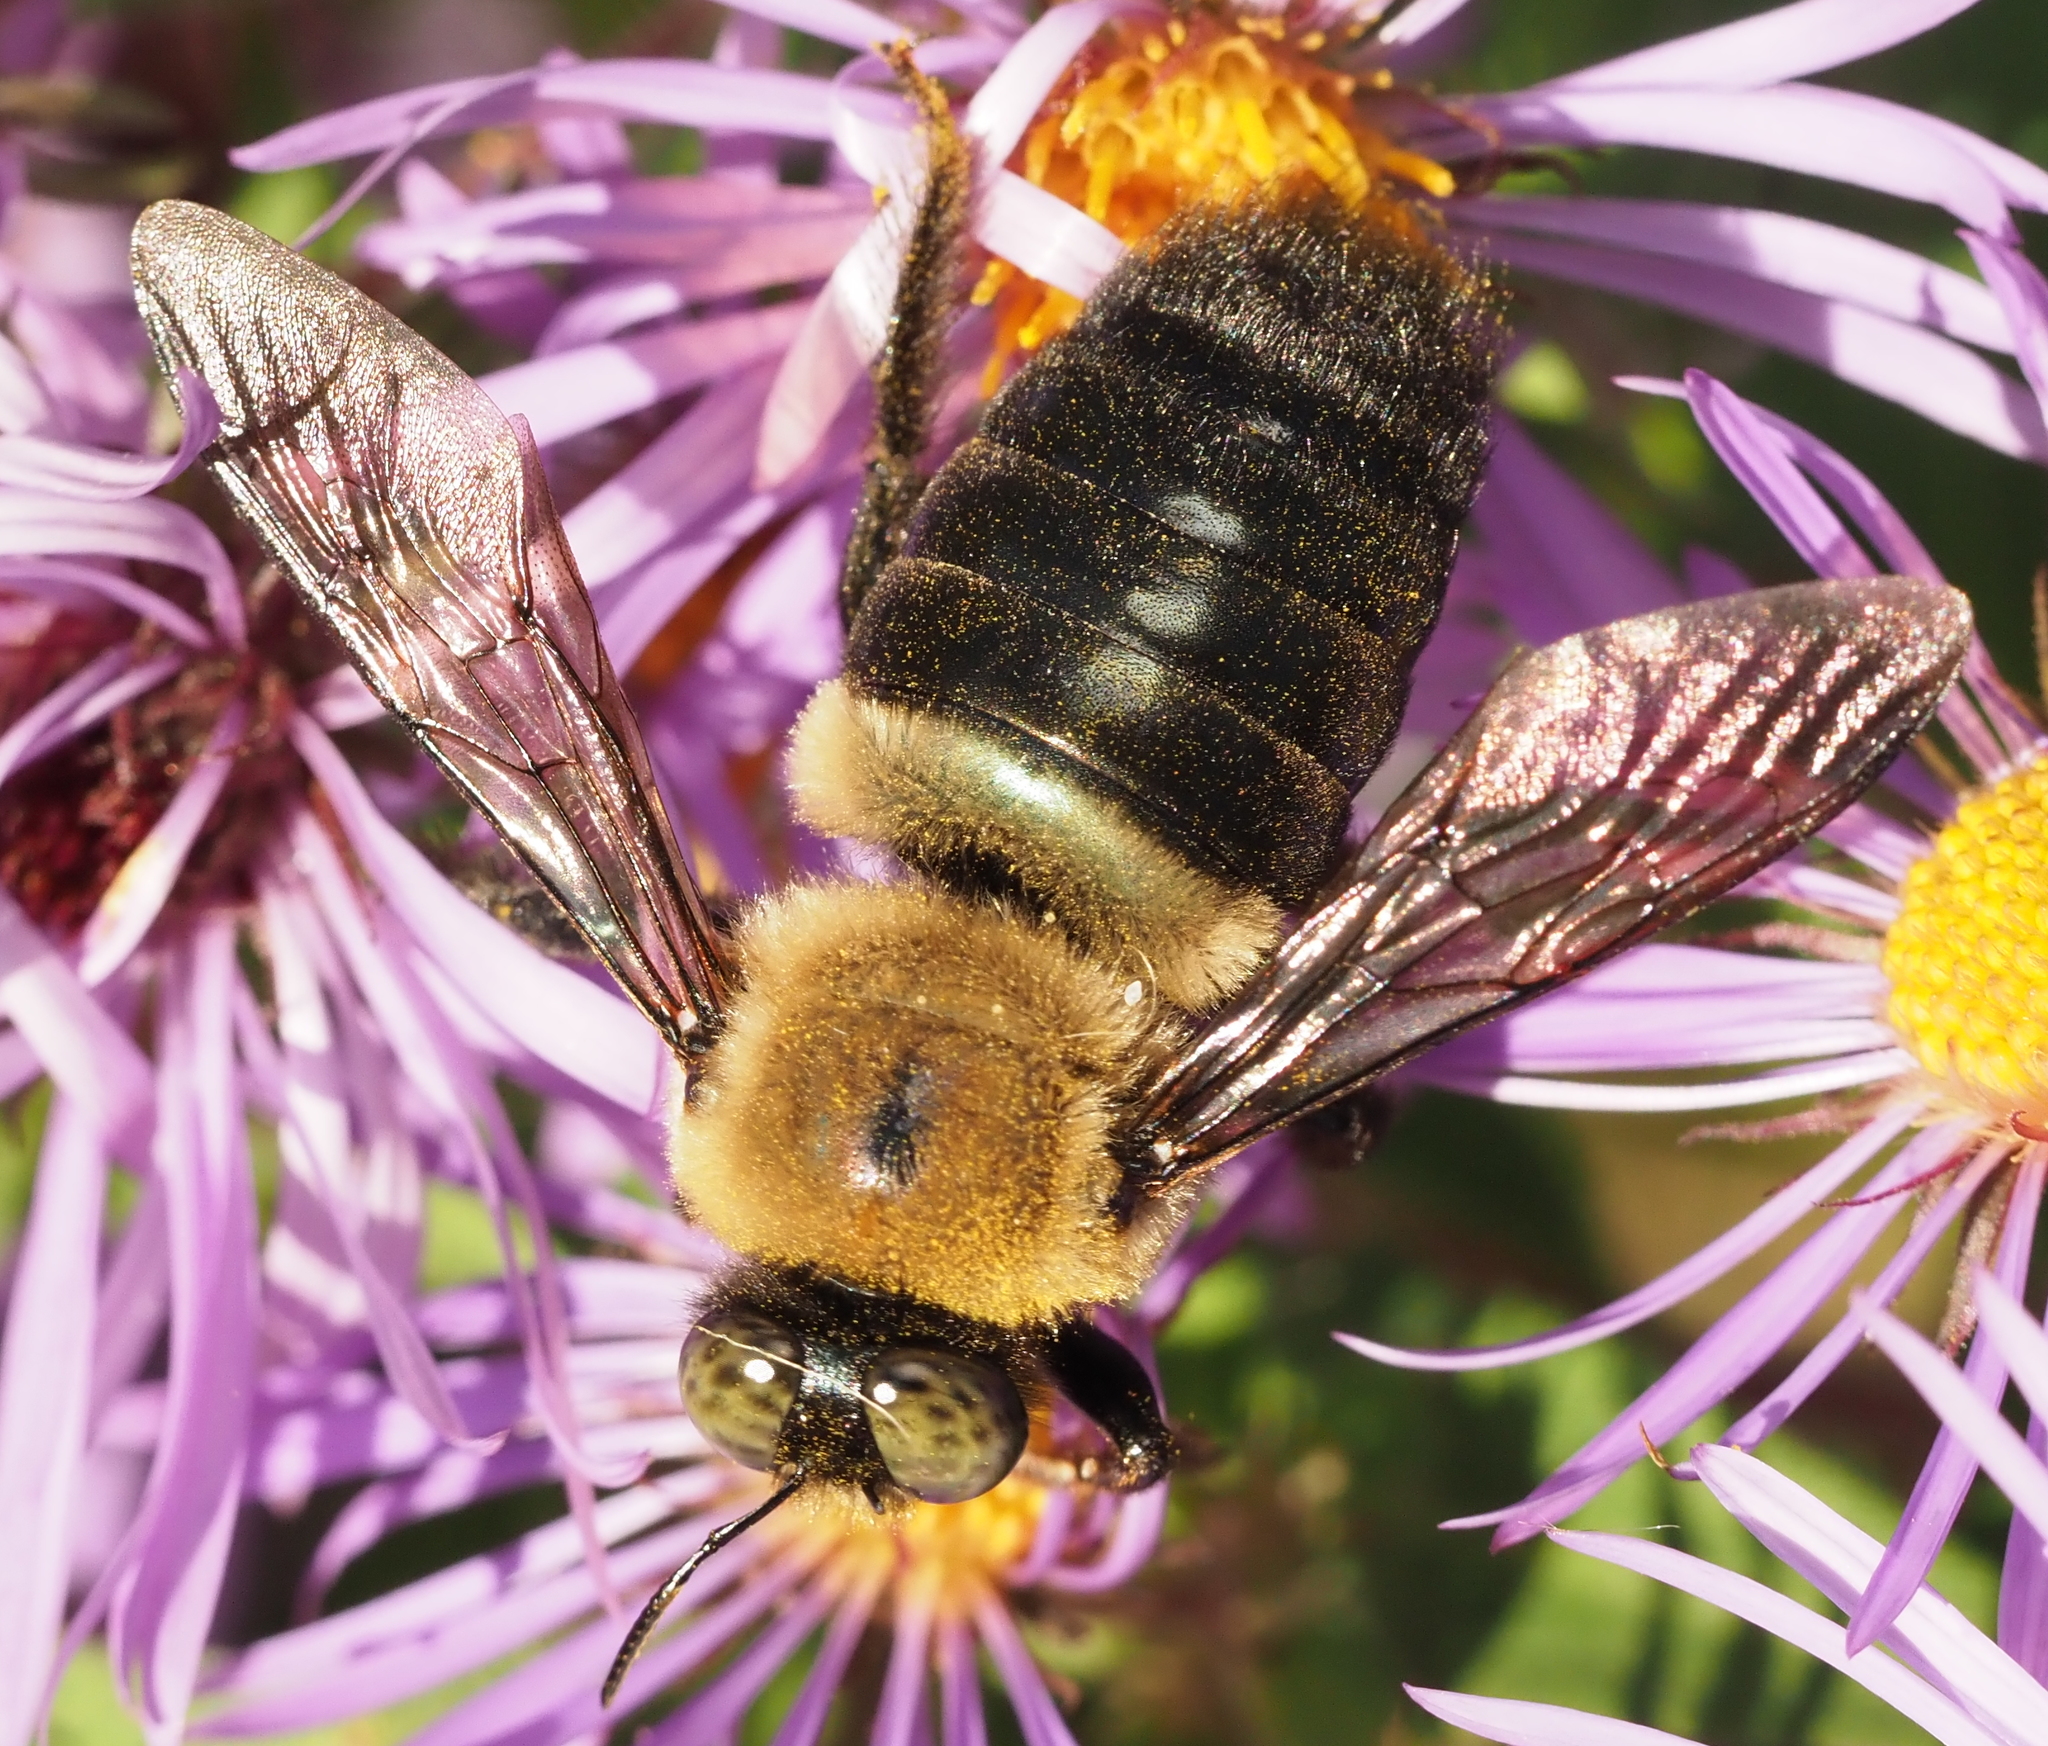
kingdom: Animalia
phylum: Arthropoda
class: Insecta
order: Hymenoptera
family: Apidae
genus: Xylocopa
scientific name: Xylocopa virginica
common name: Carpenter bee
